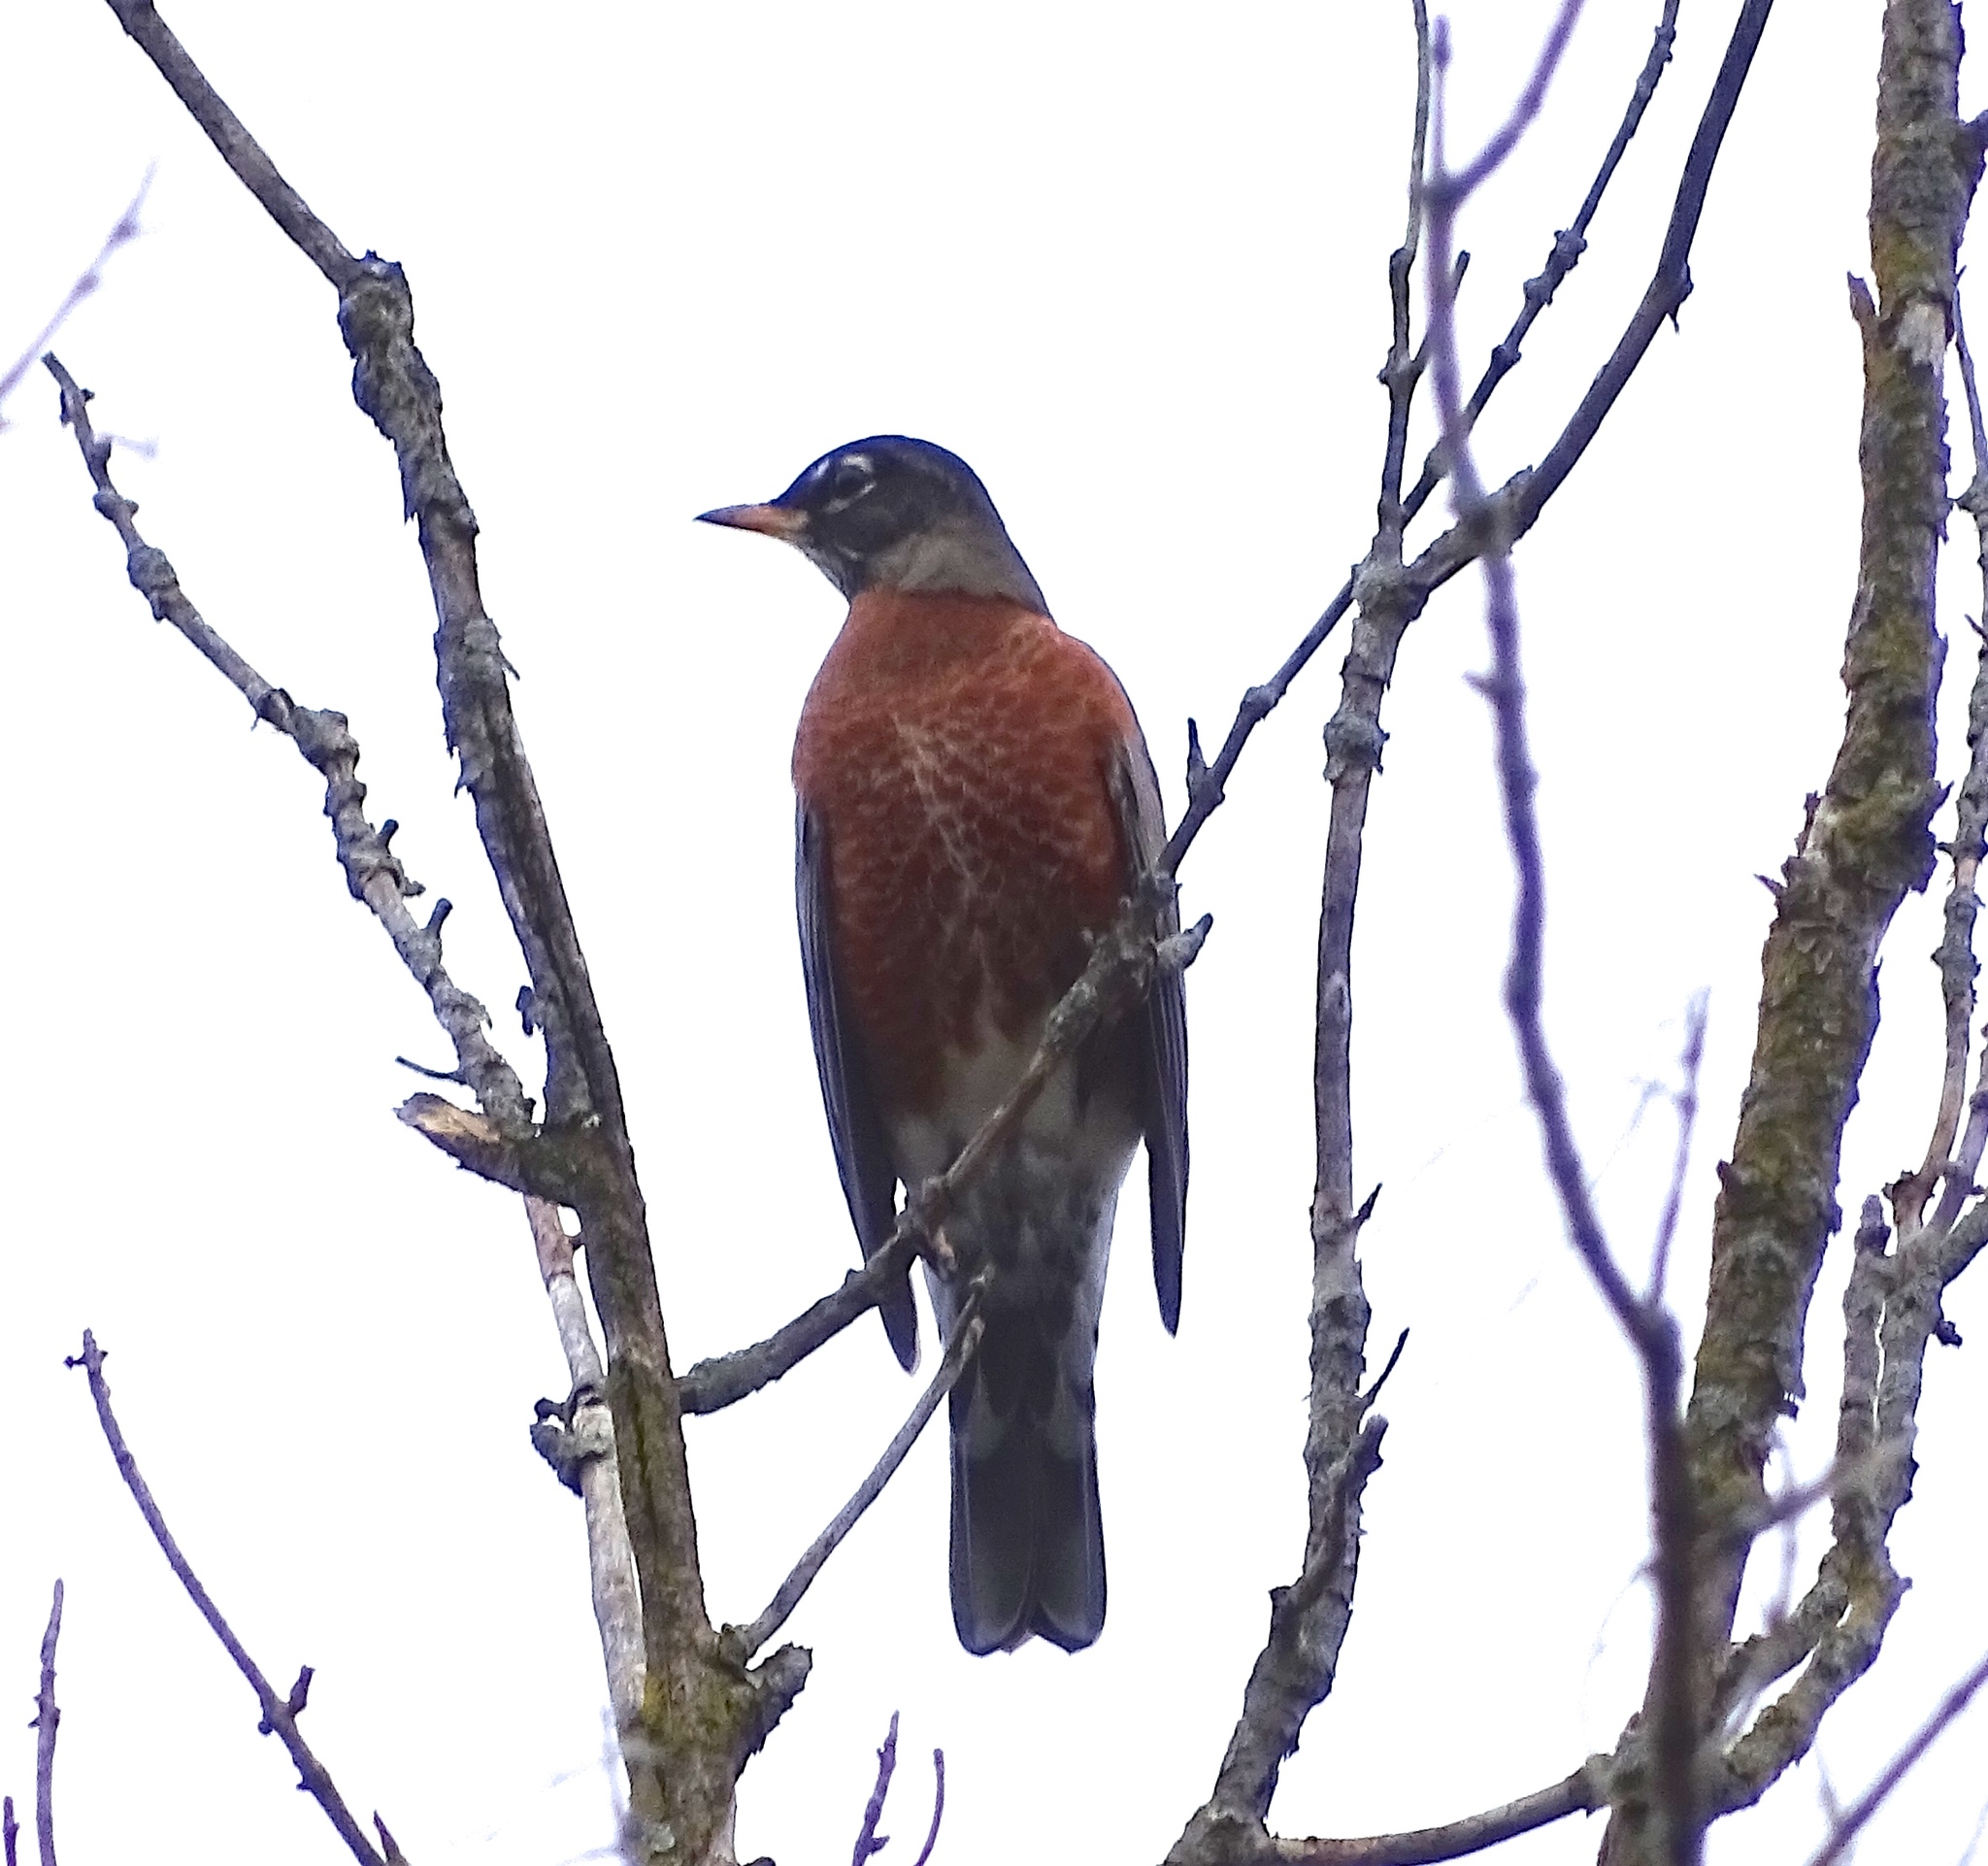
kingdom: Animalia
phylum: Chordata
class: Aves
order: Passeriformes
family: Turdidae
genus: Turdus
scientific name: Turdus migratorius
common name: American robin
